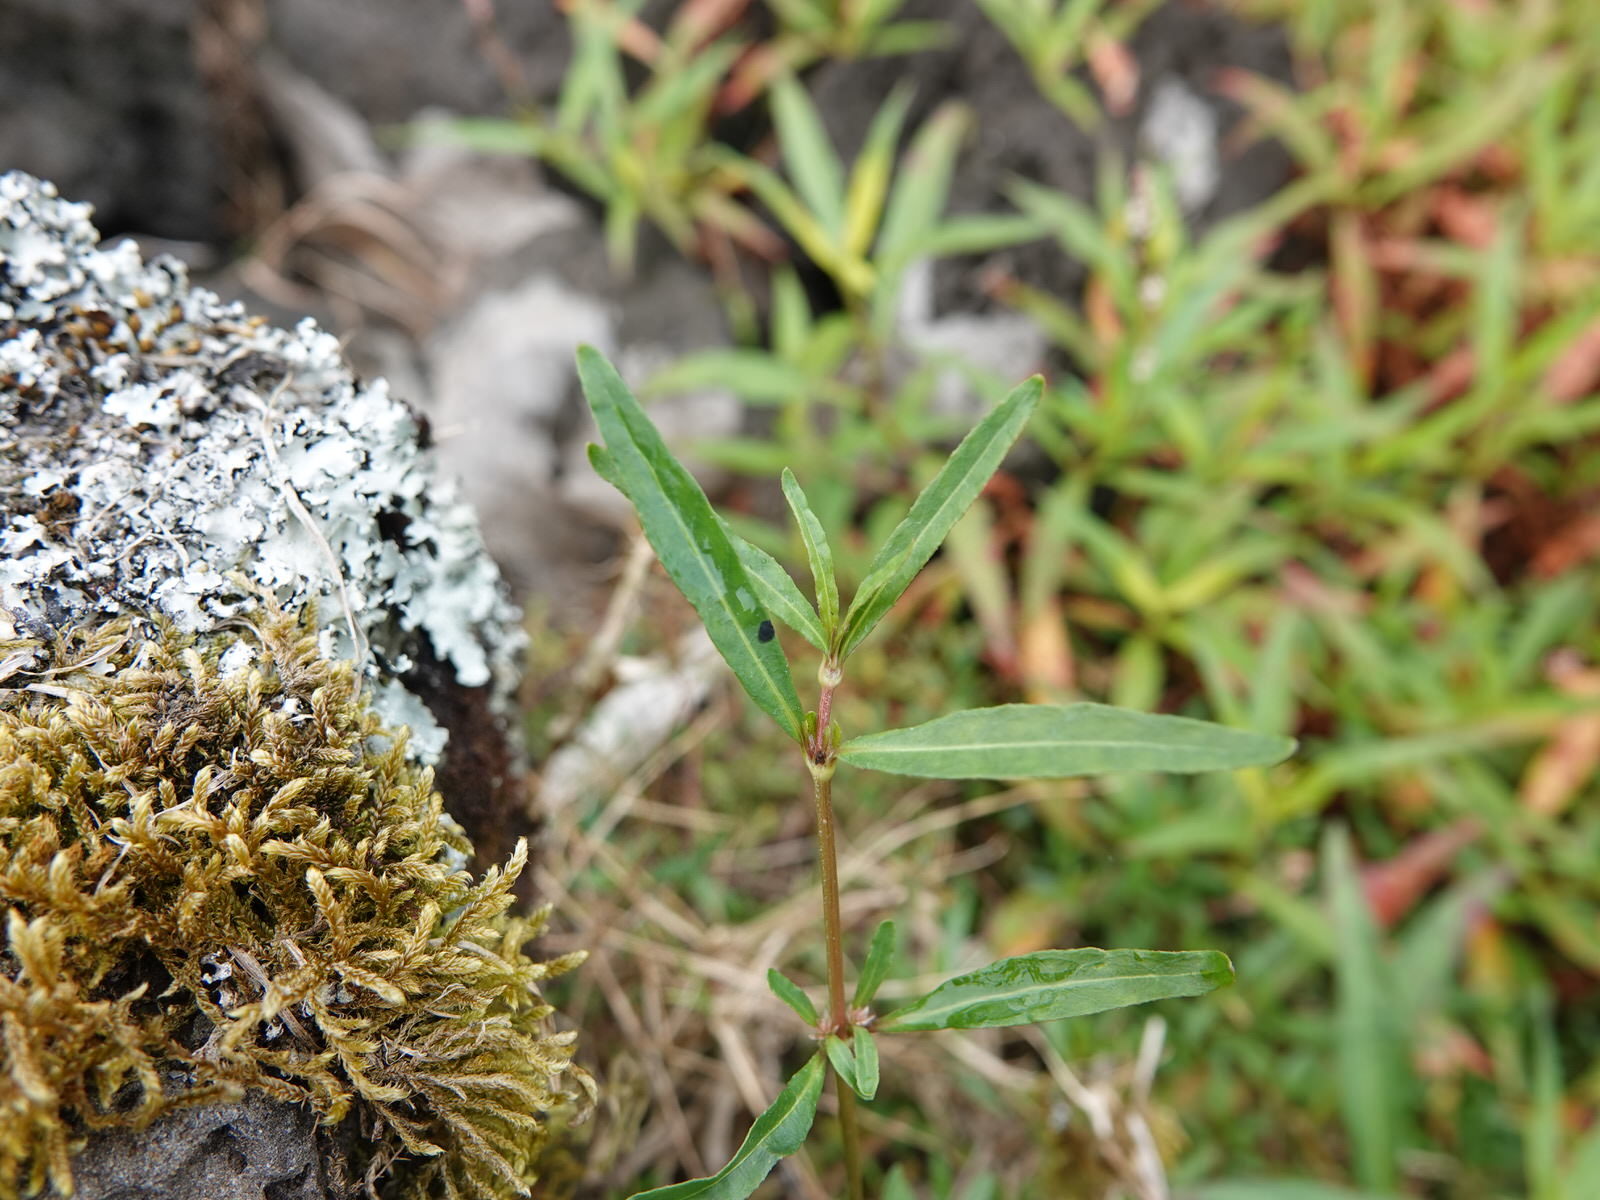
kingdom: Plantae
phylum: Tracheophyta
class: Magnoliopsida
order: Caryophyllales
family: Amaranthaceae
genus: Alternanthera
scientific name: Alternanthera nahui
